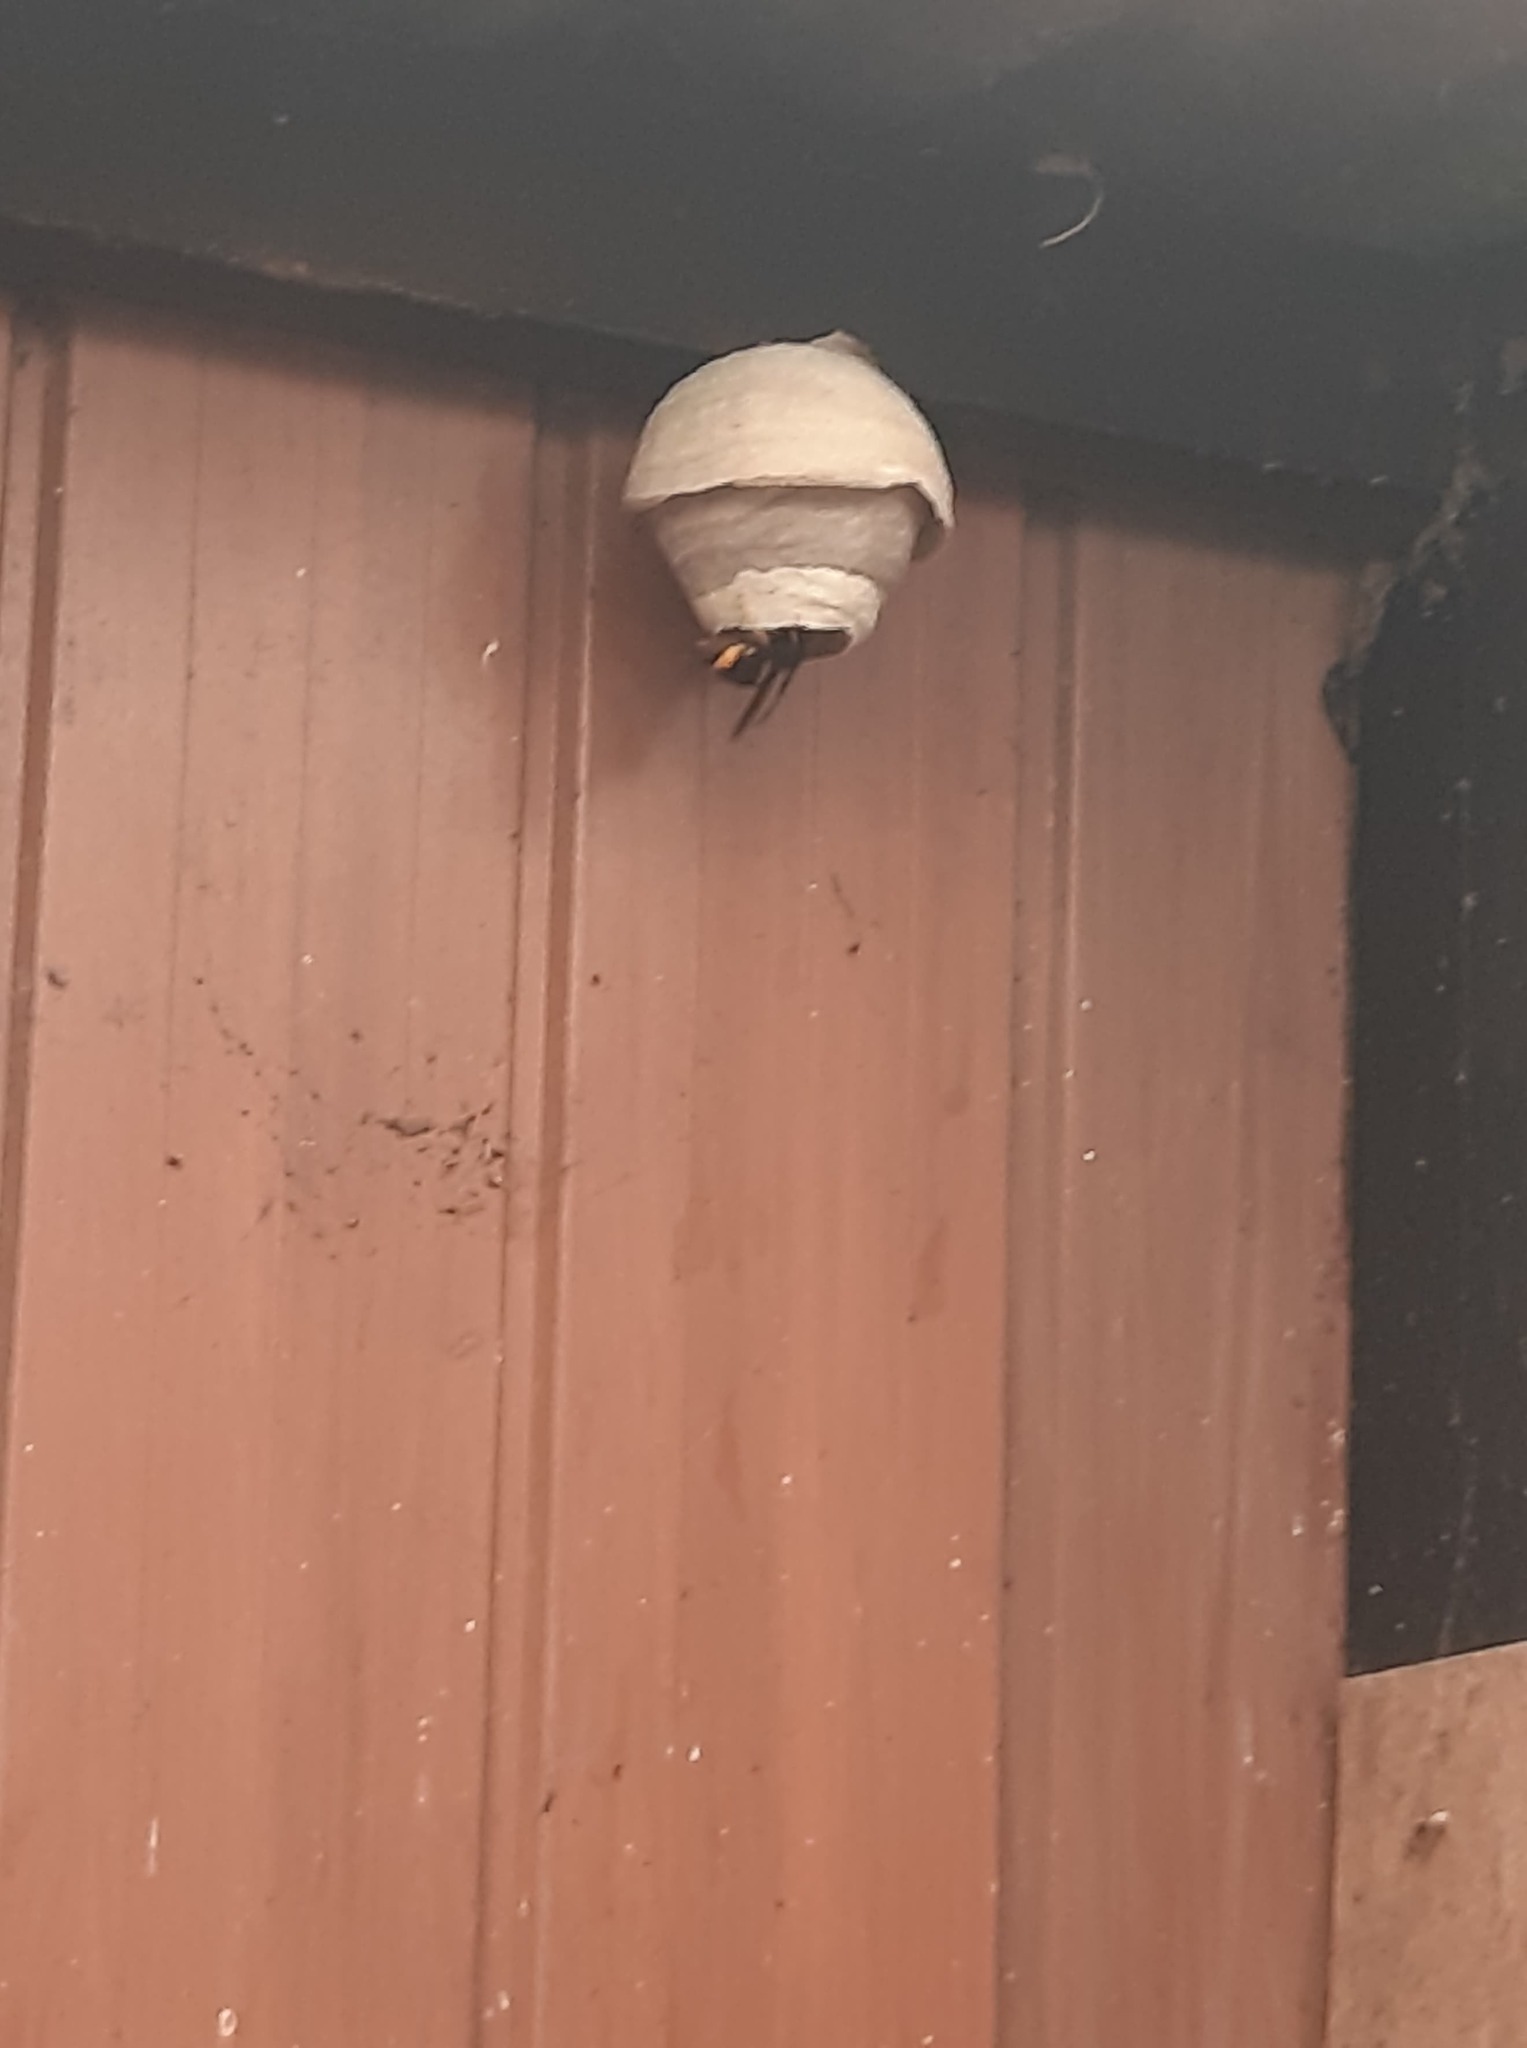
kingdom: Animalia
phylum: Arthropoda
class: Insecta
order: Hymenoptera
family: Vespidae
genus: Vespa
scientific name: Vespa velutina
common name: Asian hornet
